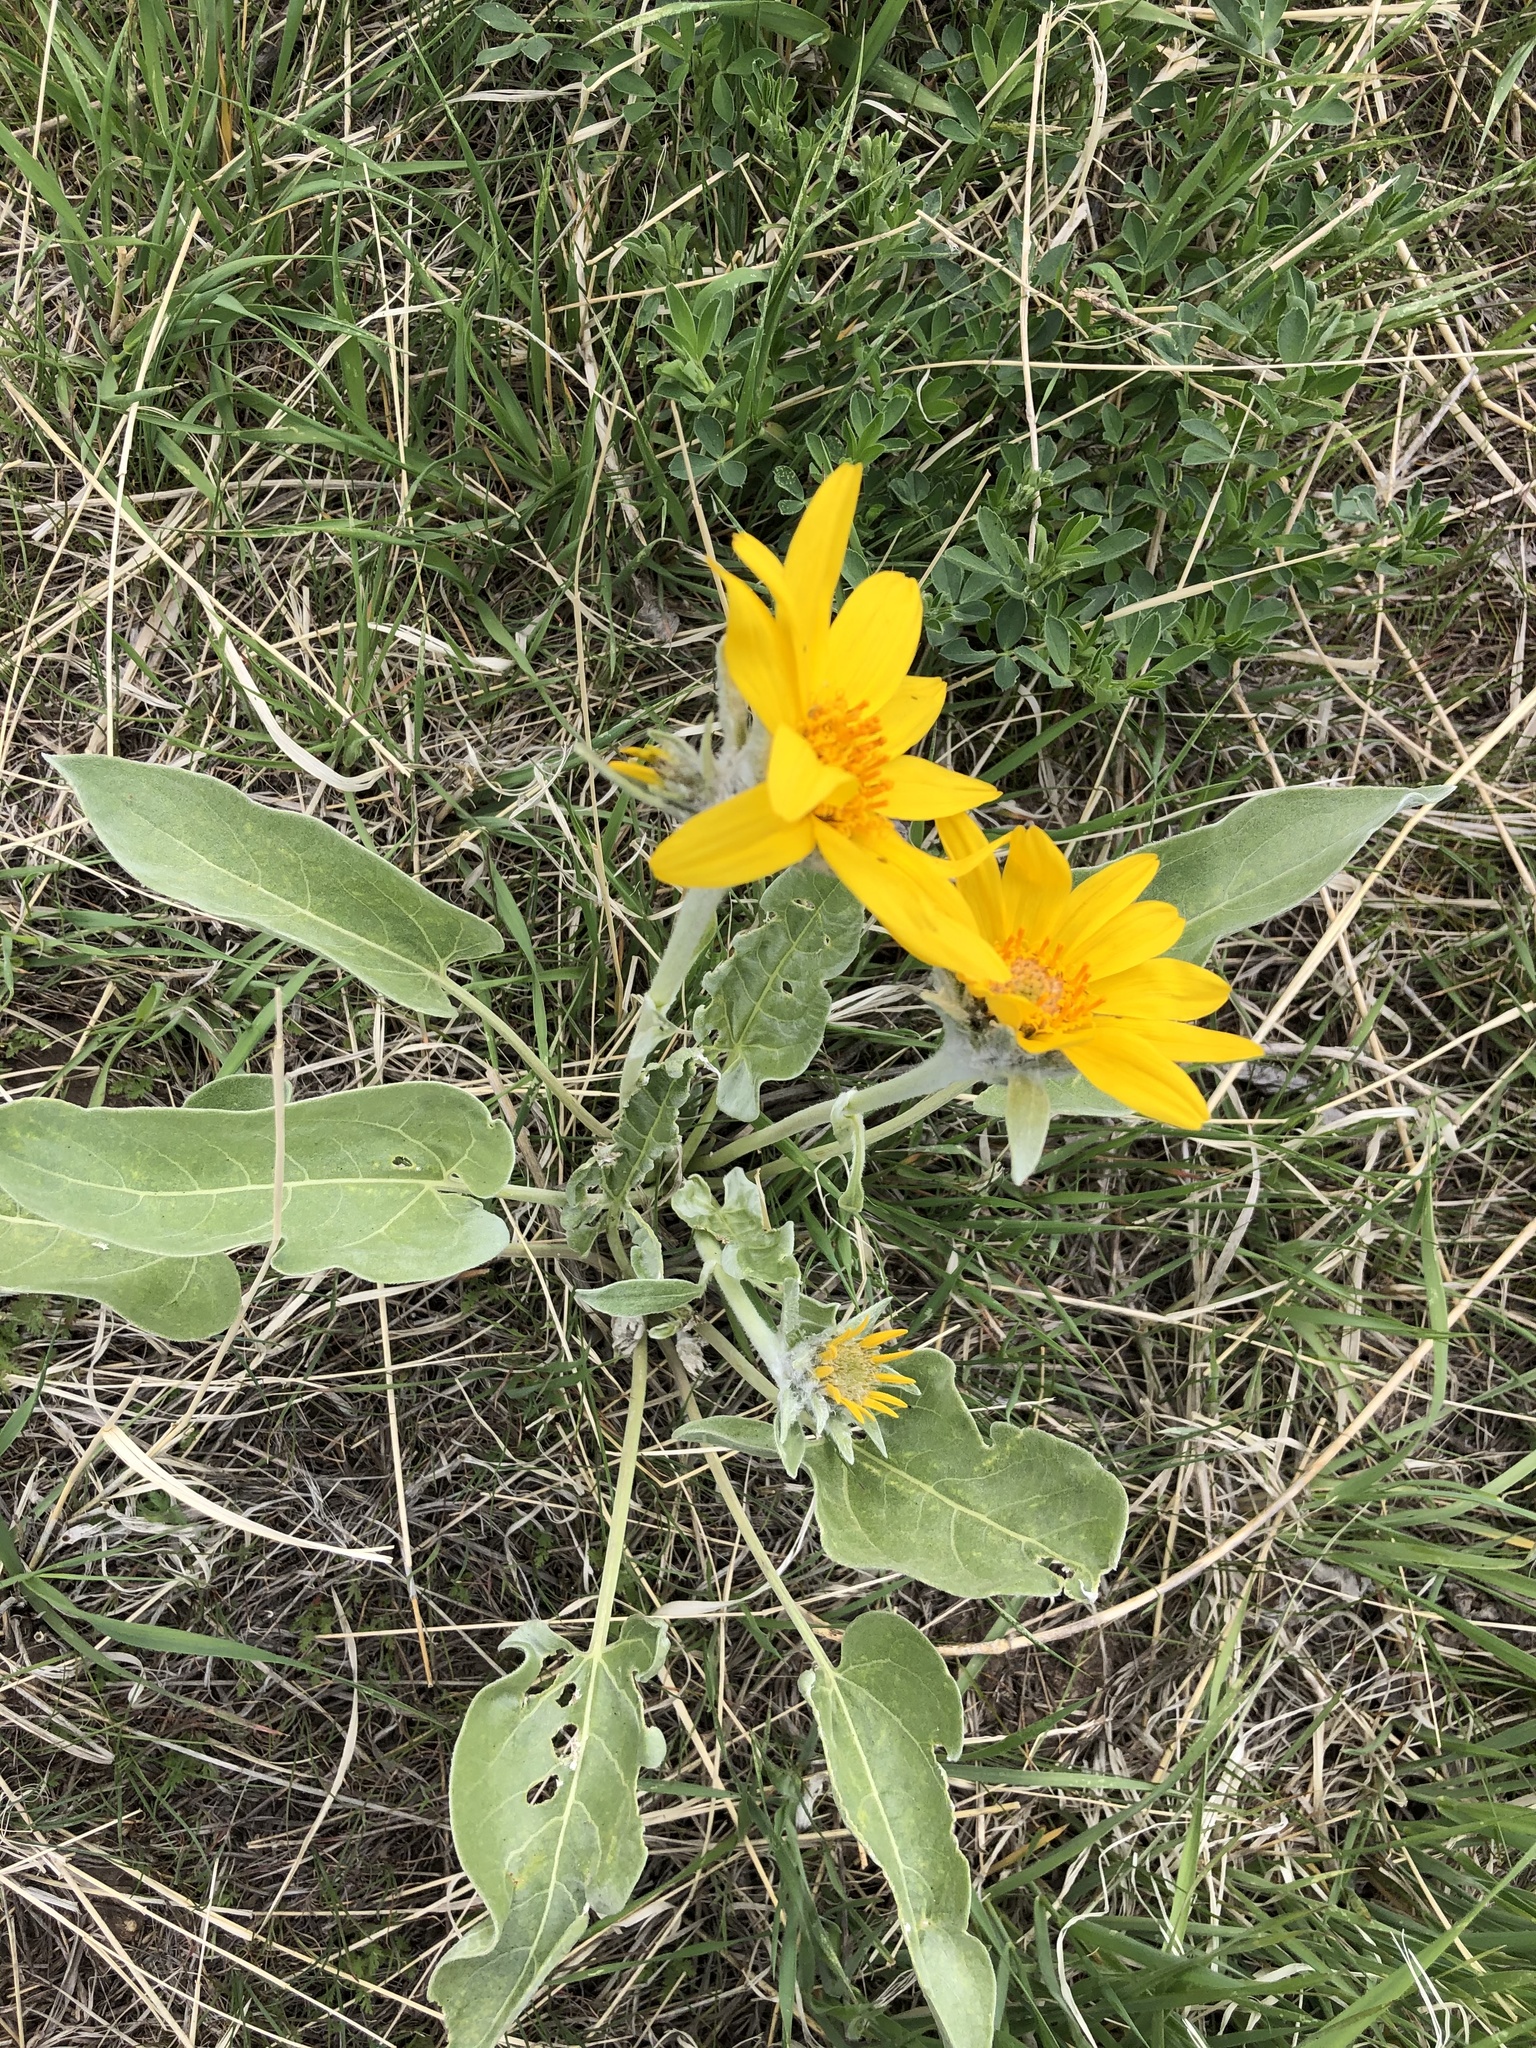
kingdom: Plantae
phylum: Tracheophyta
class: Magnoliopsida
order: Asterales
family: Asteraceae
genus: Wyethia
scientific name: Wyethia sagittata
